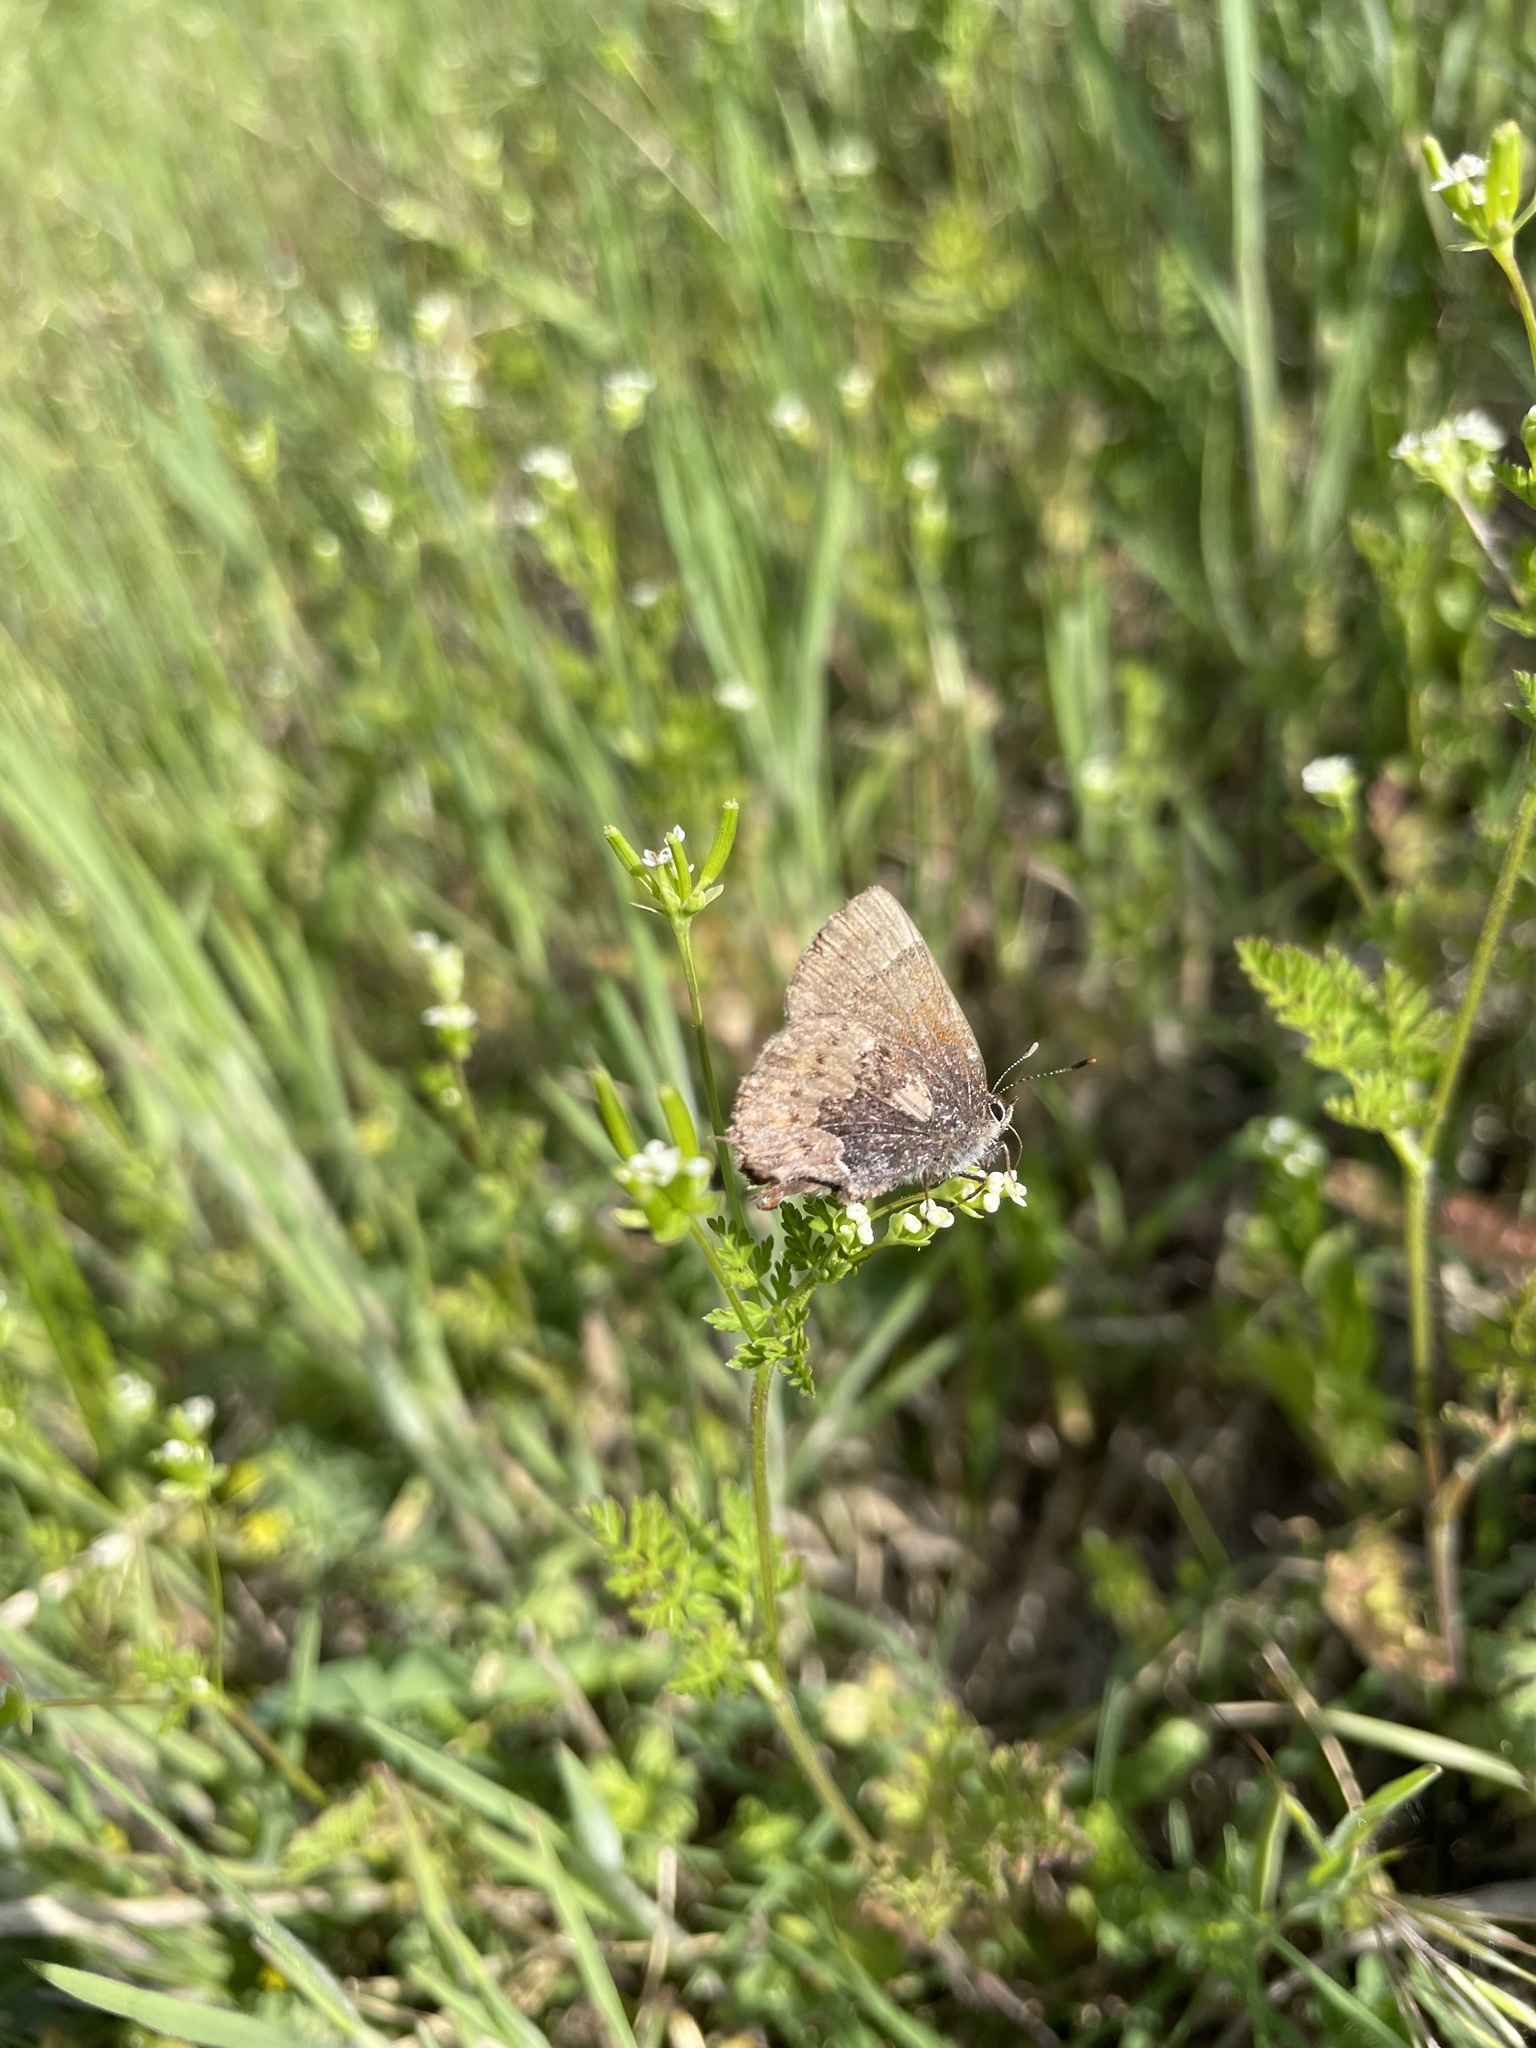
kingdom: Animalia
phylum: Arthropoda
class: Insecta
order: Lepidoptera
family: Lycaenidae
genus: Incisalia
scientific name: Incisalia henrici
